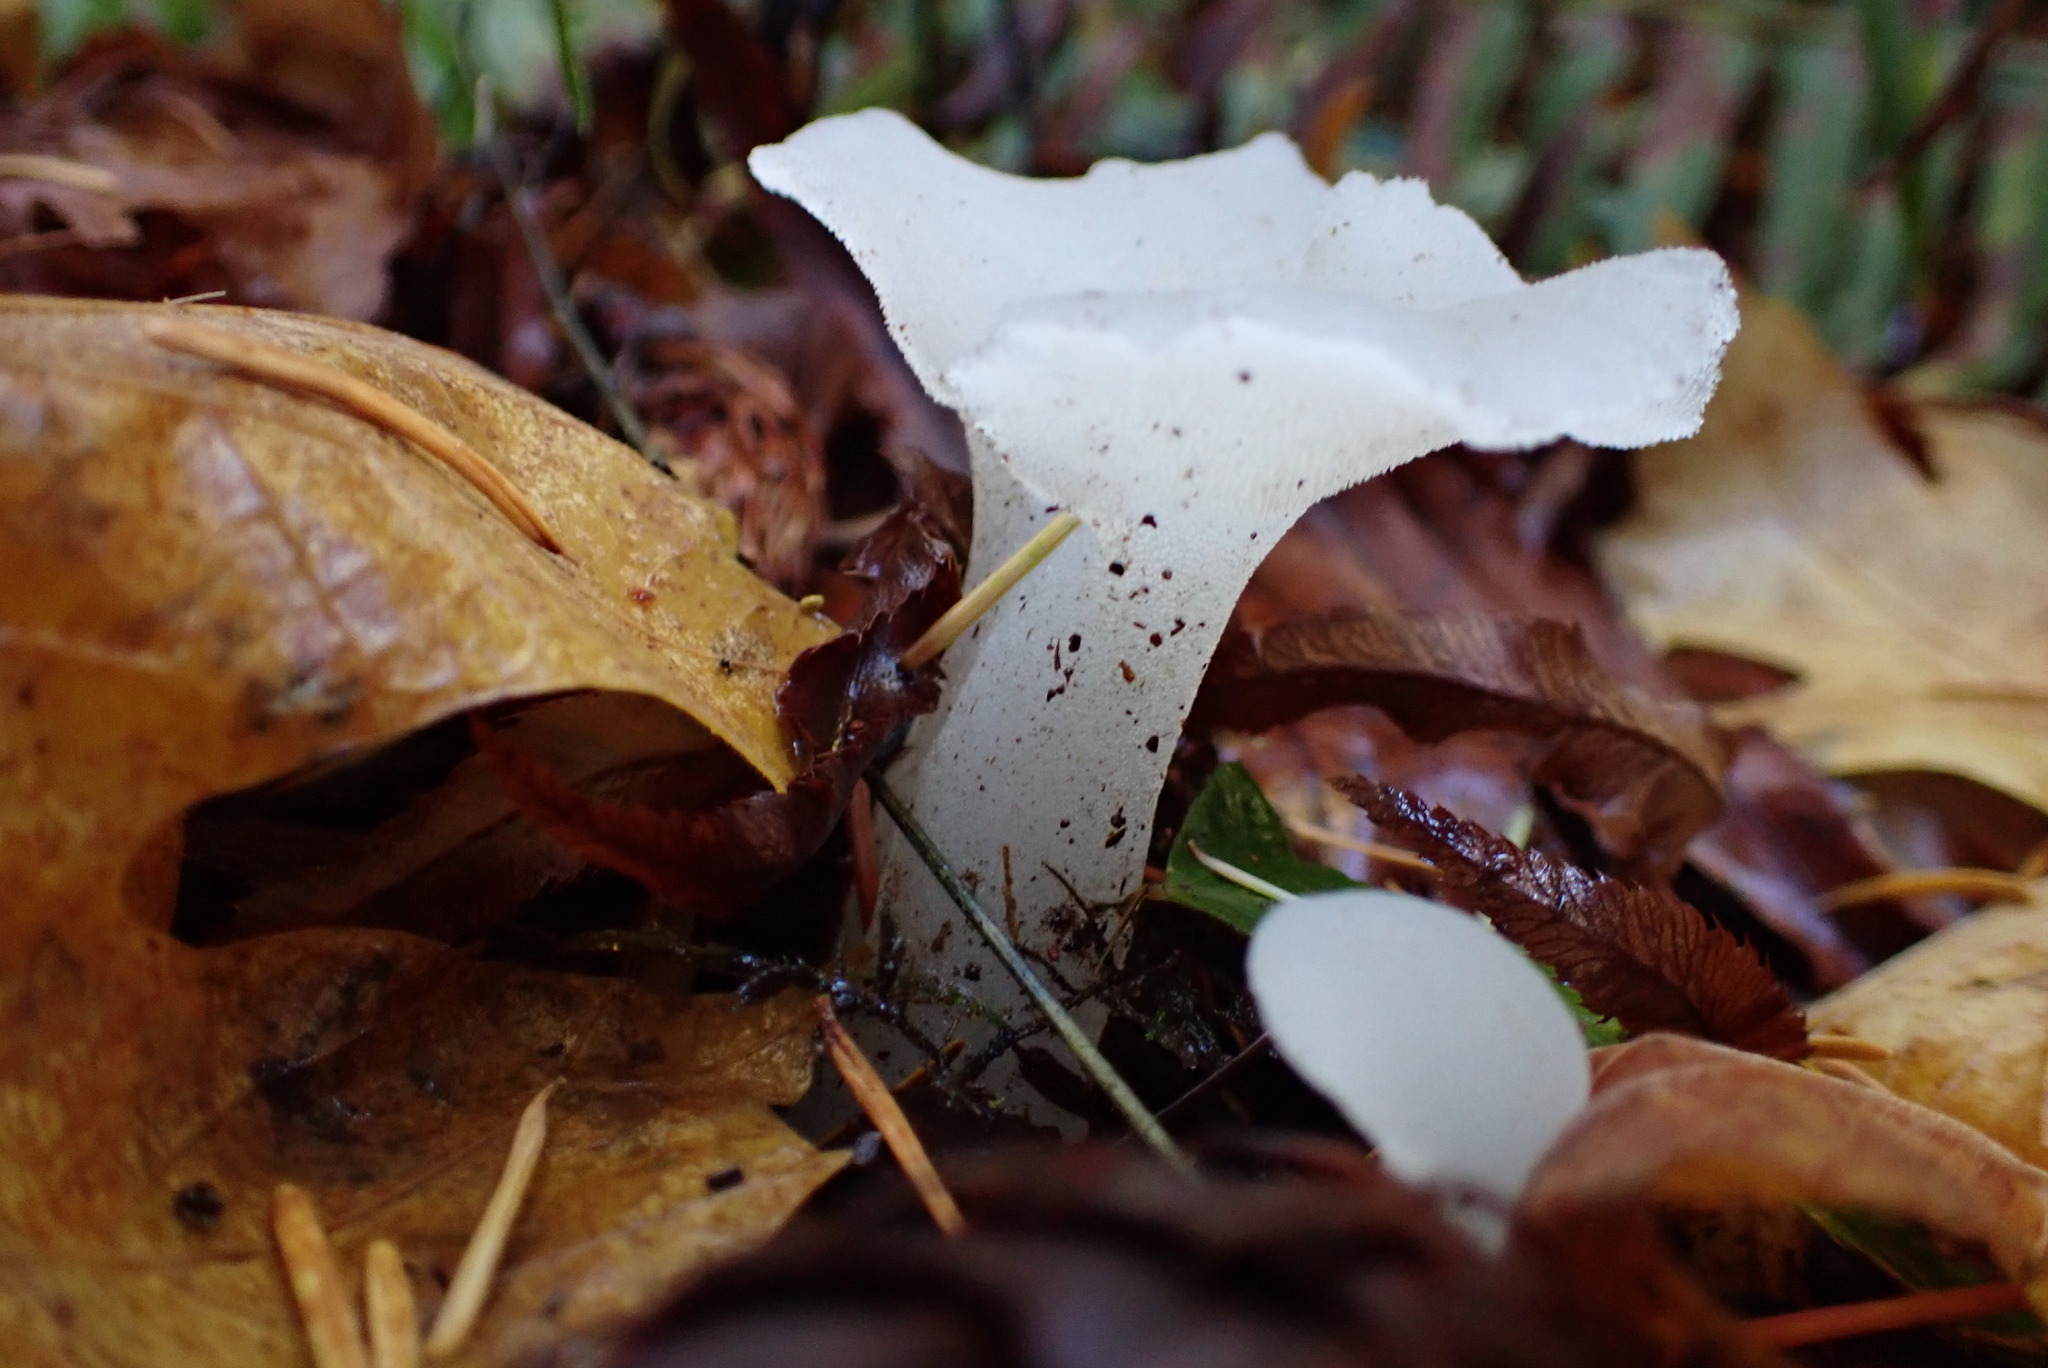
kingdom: Fungi
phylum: Basidiomycota
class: Agaricomycetes
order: Auriculariales
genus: Pseudohydnum
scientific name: Pseudohydnum gelatinosum
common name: Jelly tongue
